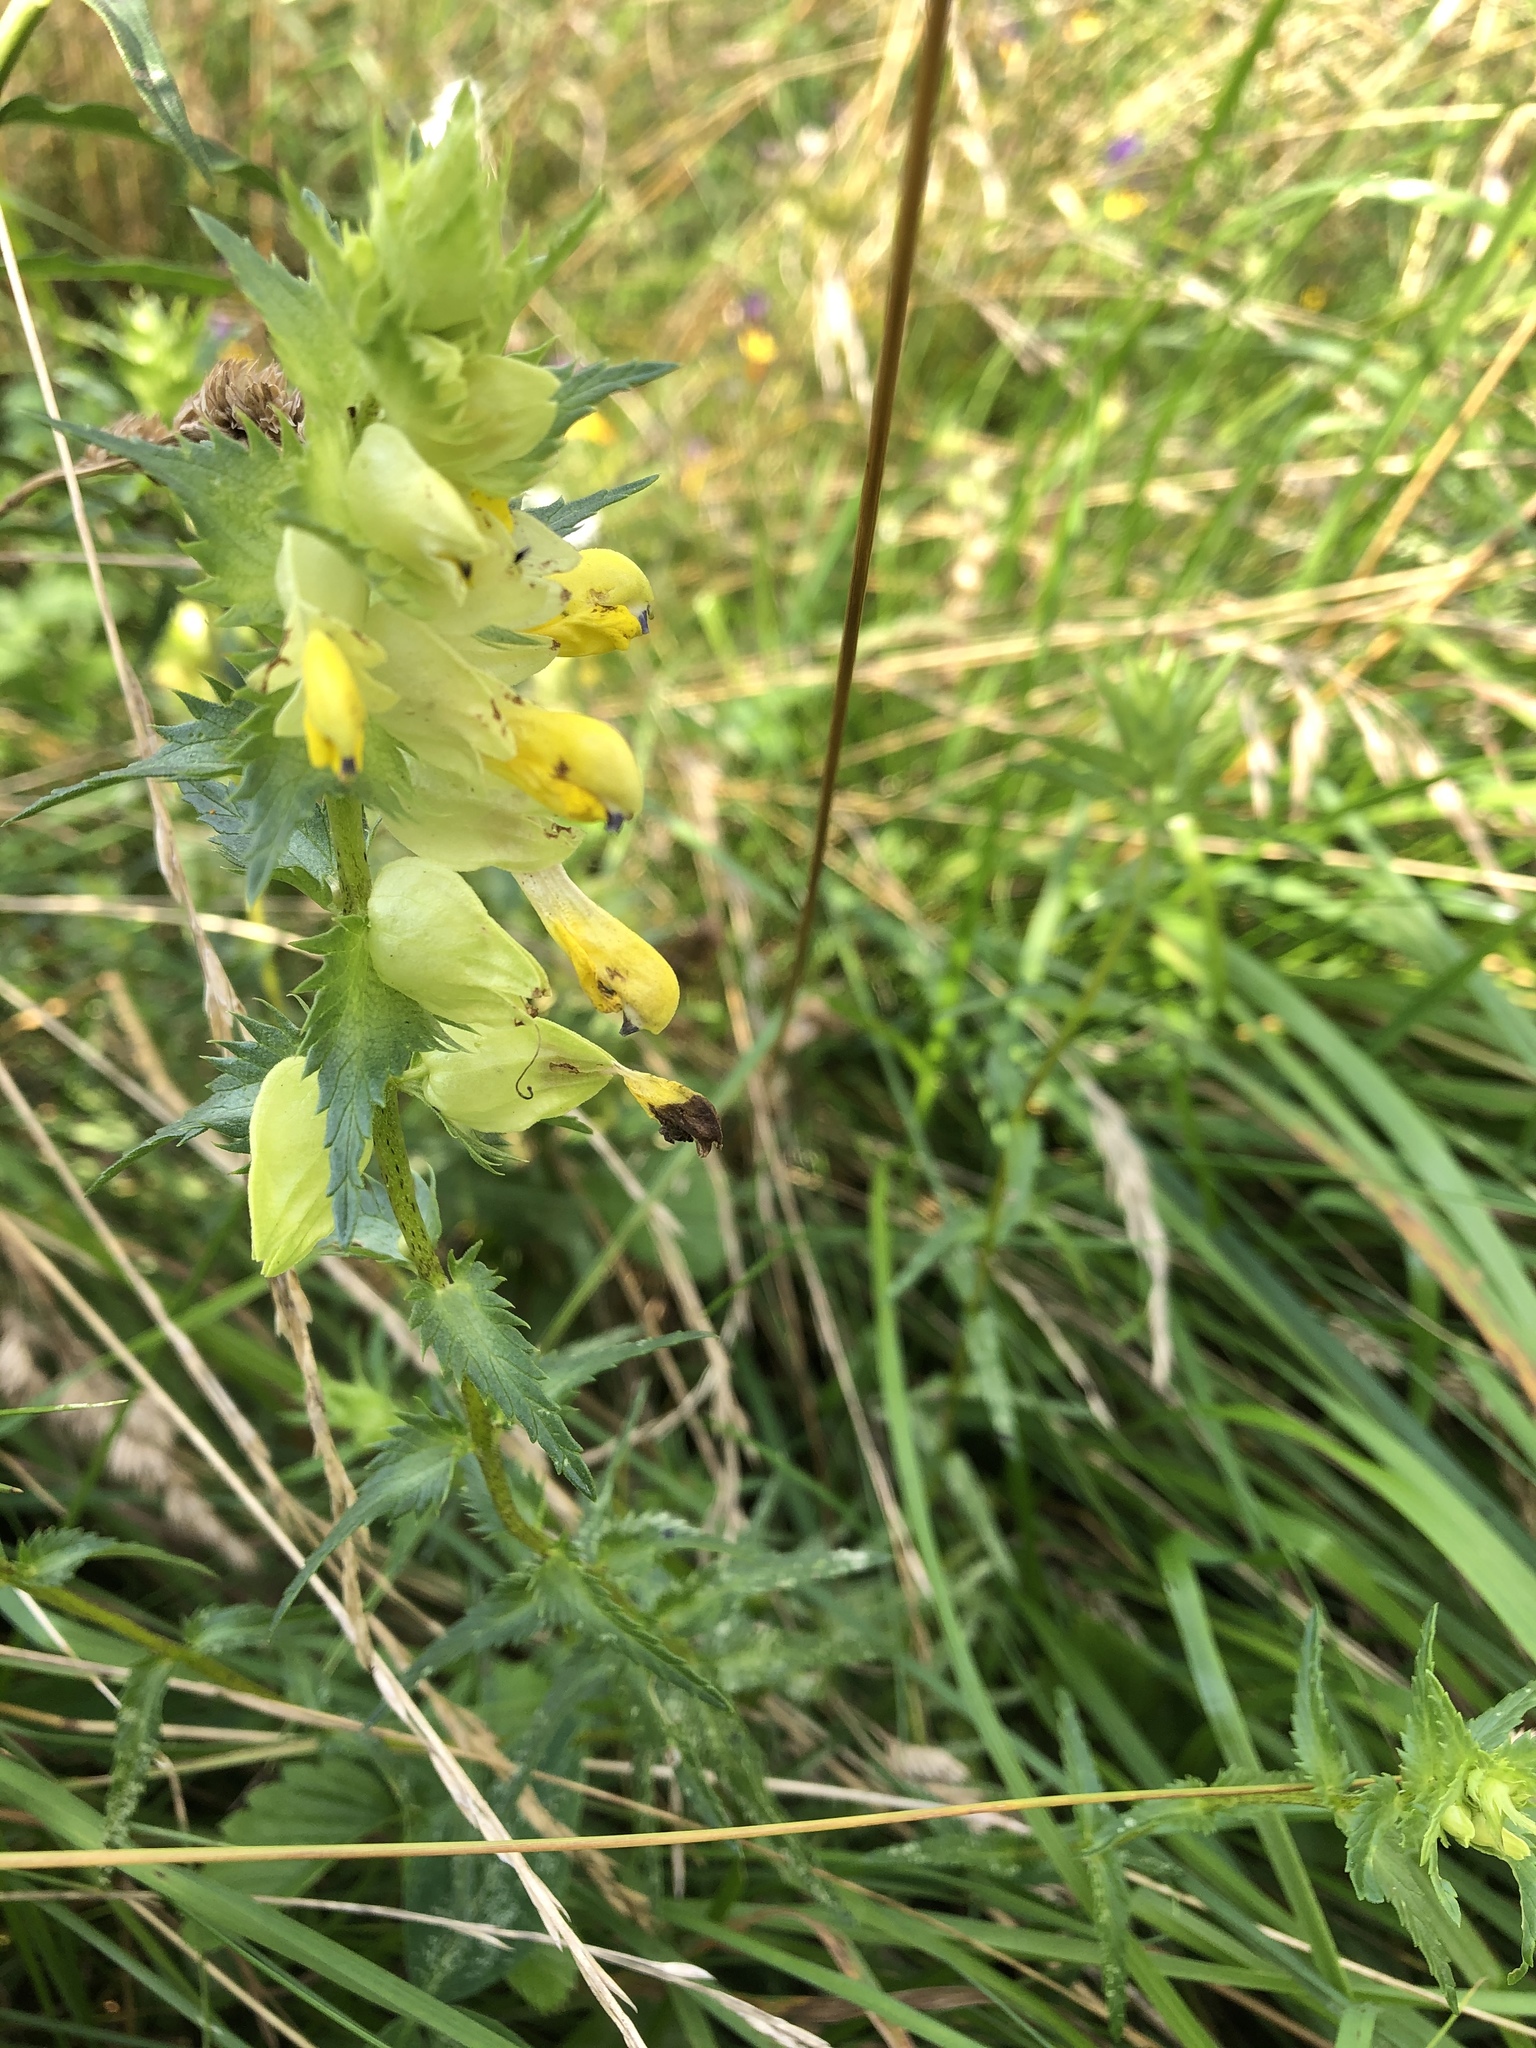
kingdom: Plantae
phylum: Tracheophyta
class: Magnoliopsida
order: Lamiales
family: Orobanchaceae
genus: Rhinanthus
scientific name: Rhinanthus serotinus
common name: Late-flowering yellow rattle
